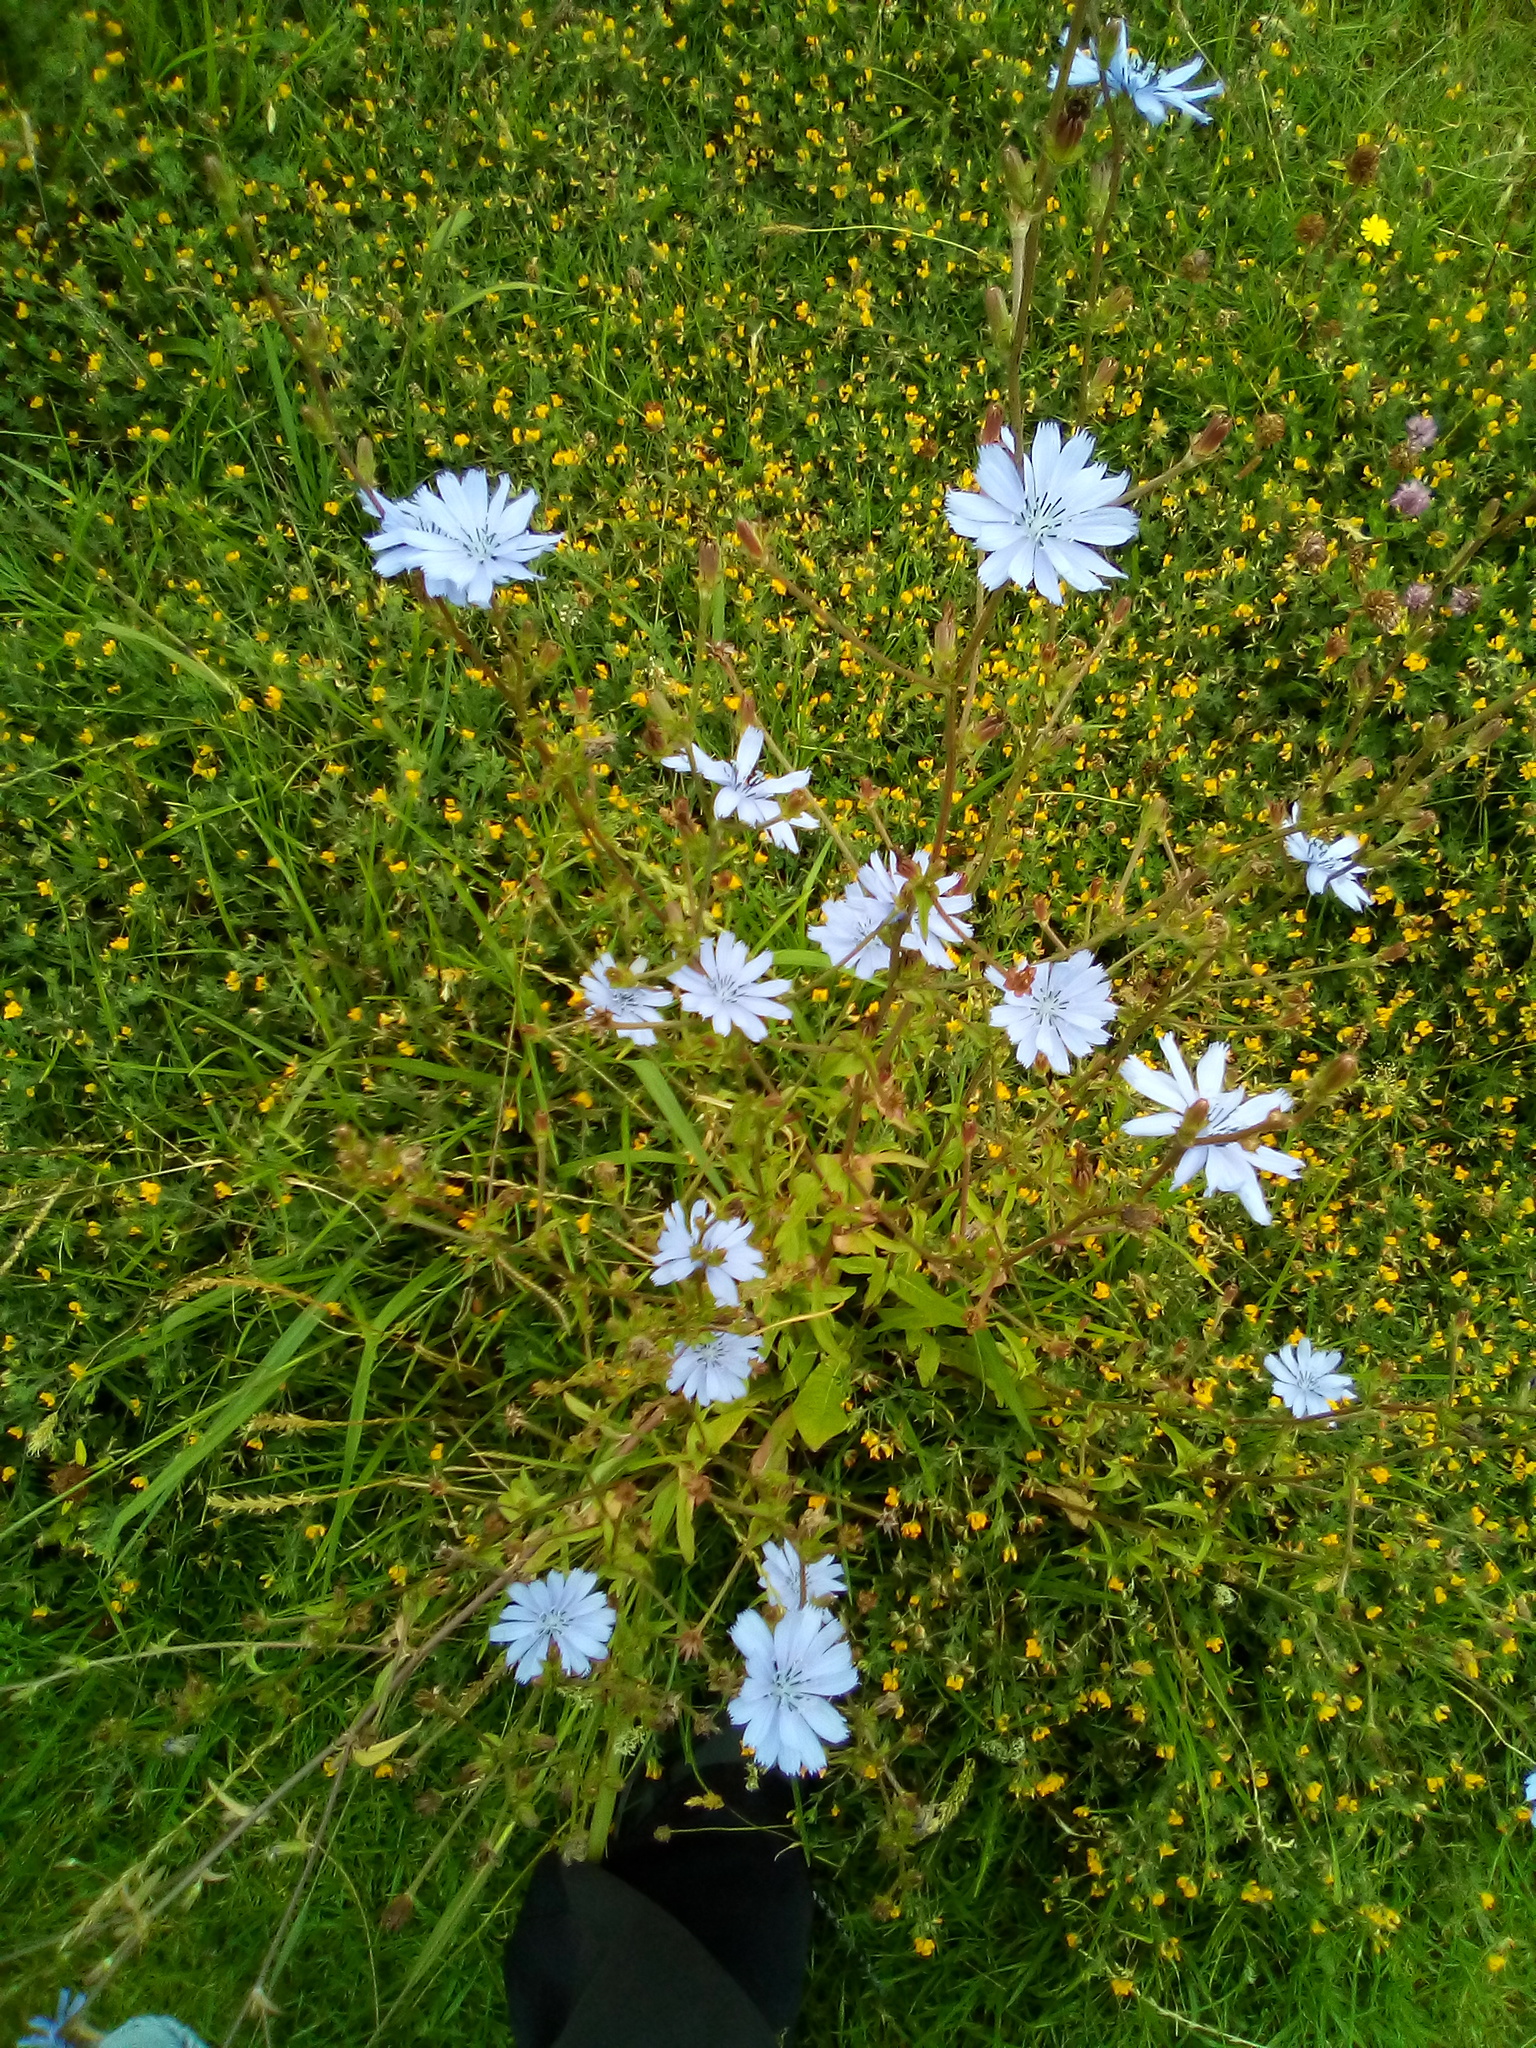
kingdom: Plantae
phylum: Tracheophyta
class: Magnoliopsida
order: Asterales
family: Asteraceae
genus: Cichorium
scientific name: Cichorium intybus
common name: Chicory
